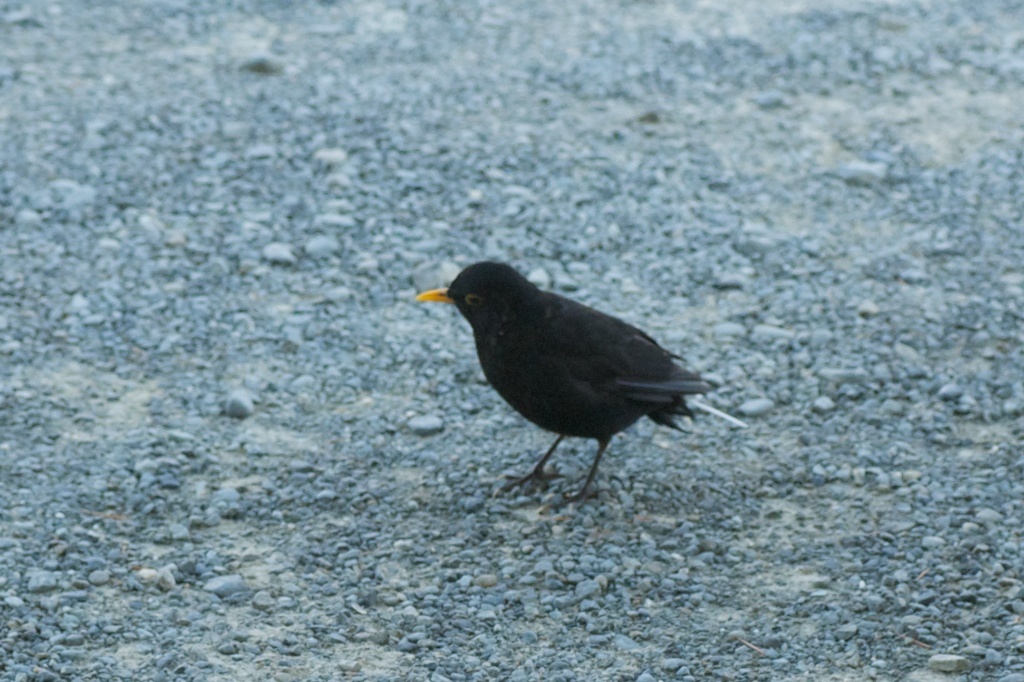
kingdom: Animalia
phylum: Chordata
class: Aves
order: Passeriformes
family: Turdidae
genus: Turdus
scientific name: Turdus merula
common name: Common blackbird
